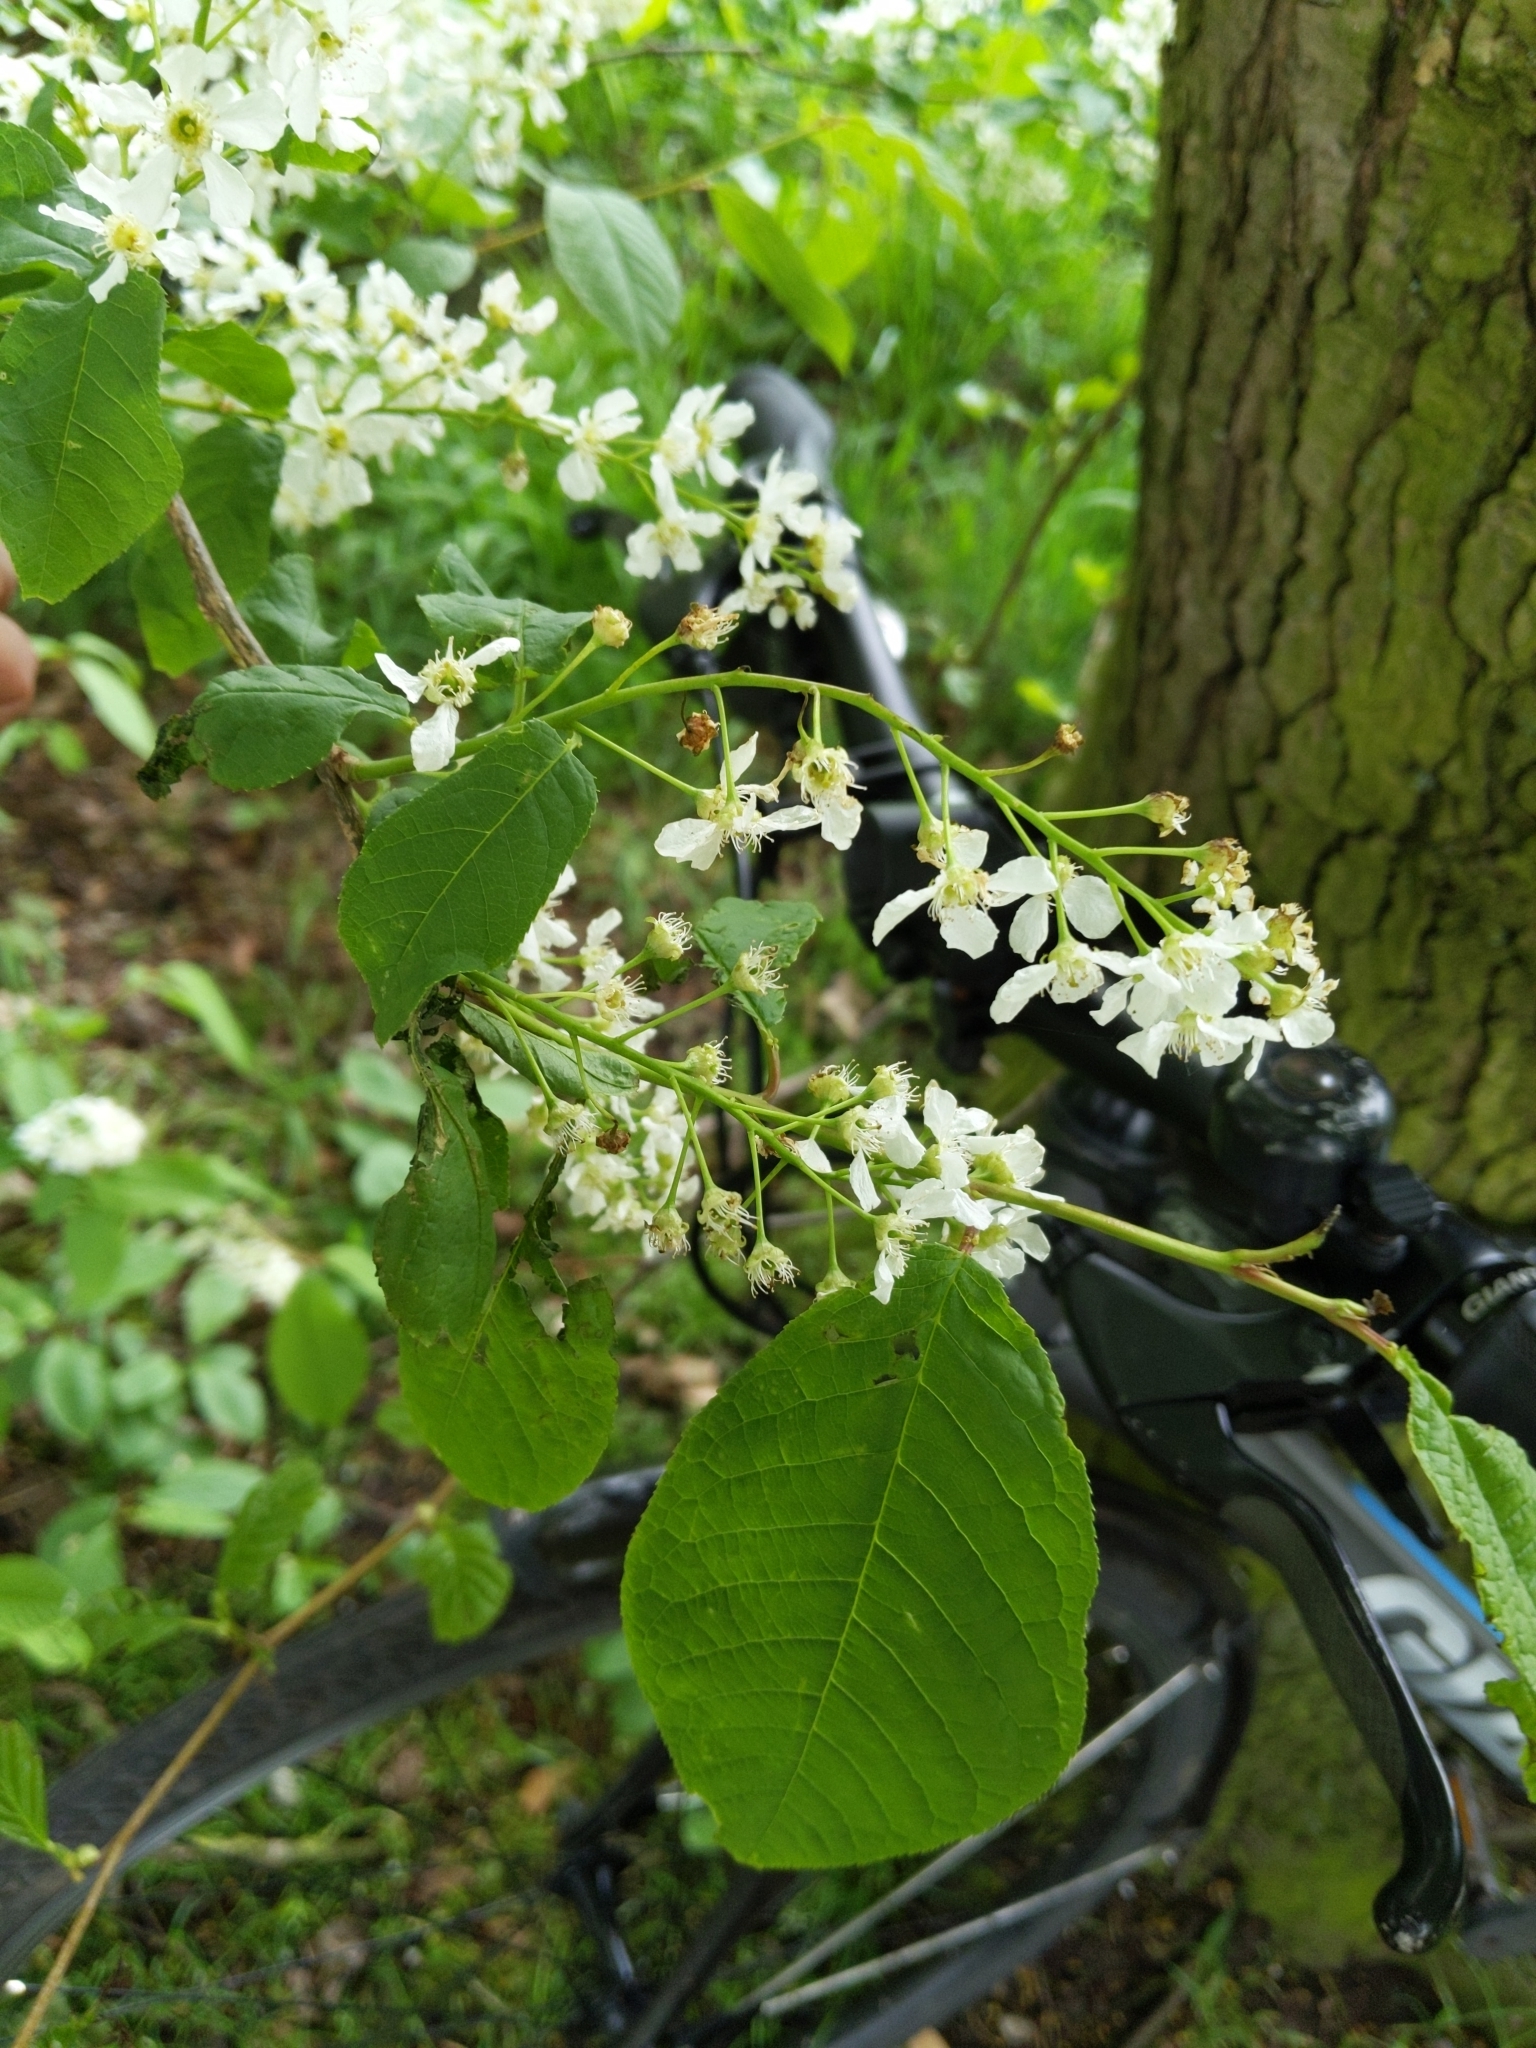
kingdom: Plantae
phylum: Tracheophyta
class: Magnoliopsida
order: Rosales
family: Rosaceae
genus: Prunus
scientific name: Prunus padus
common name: Bird cherry
